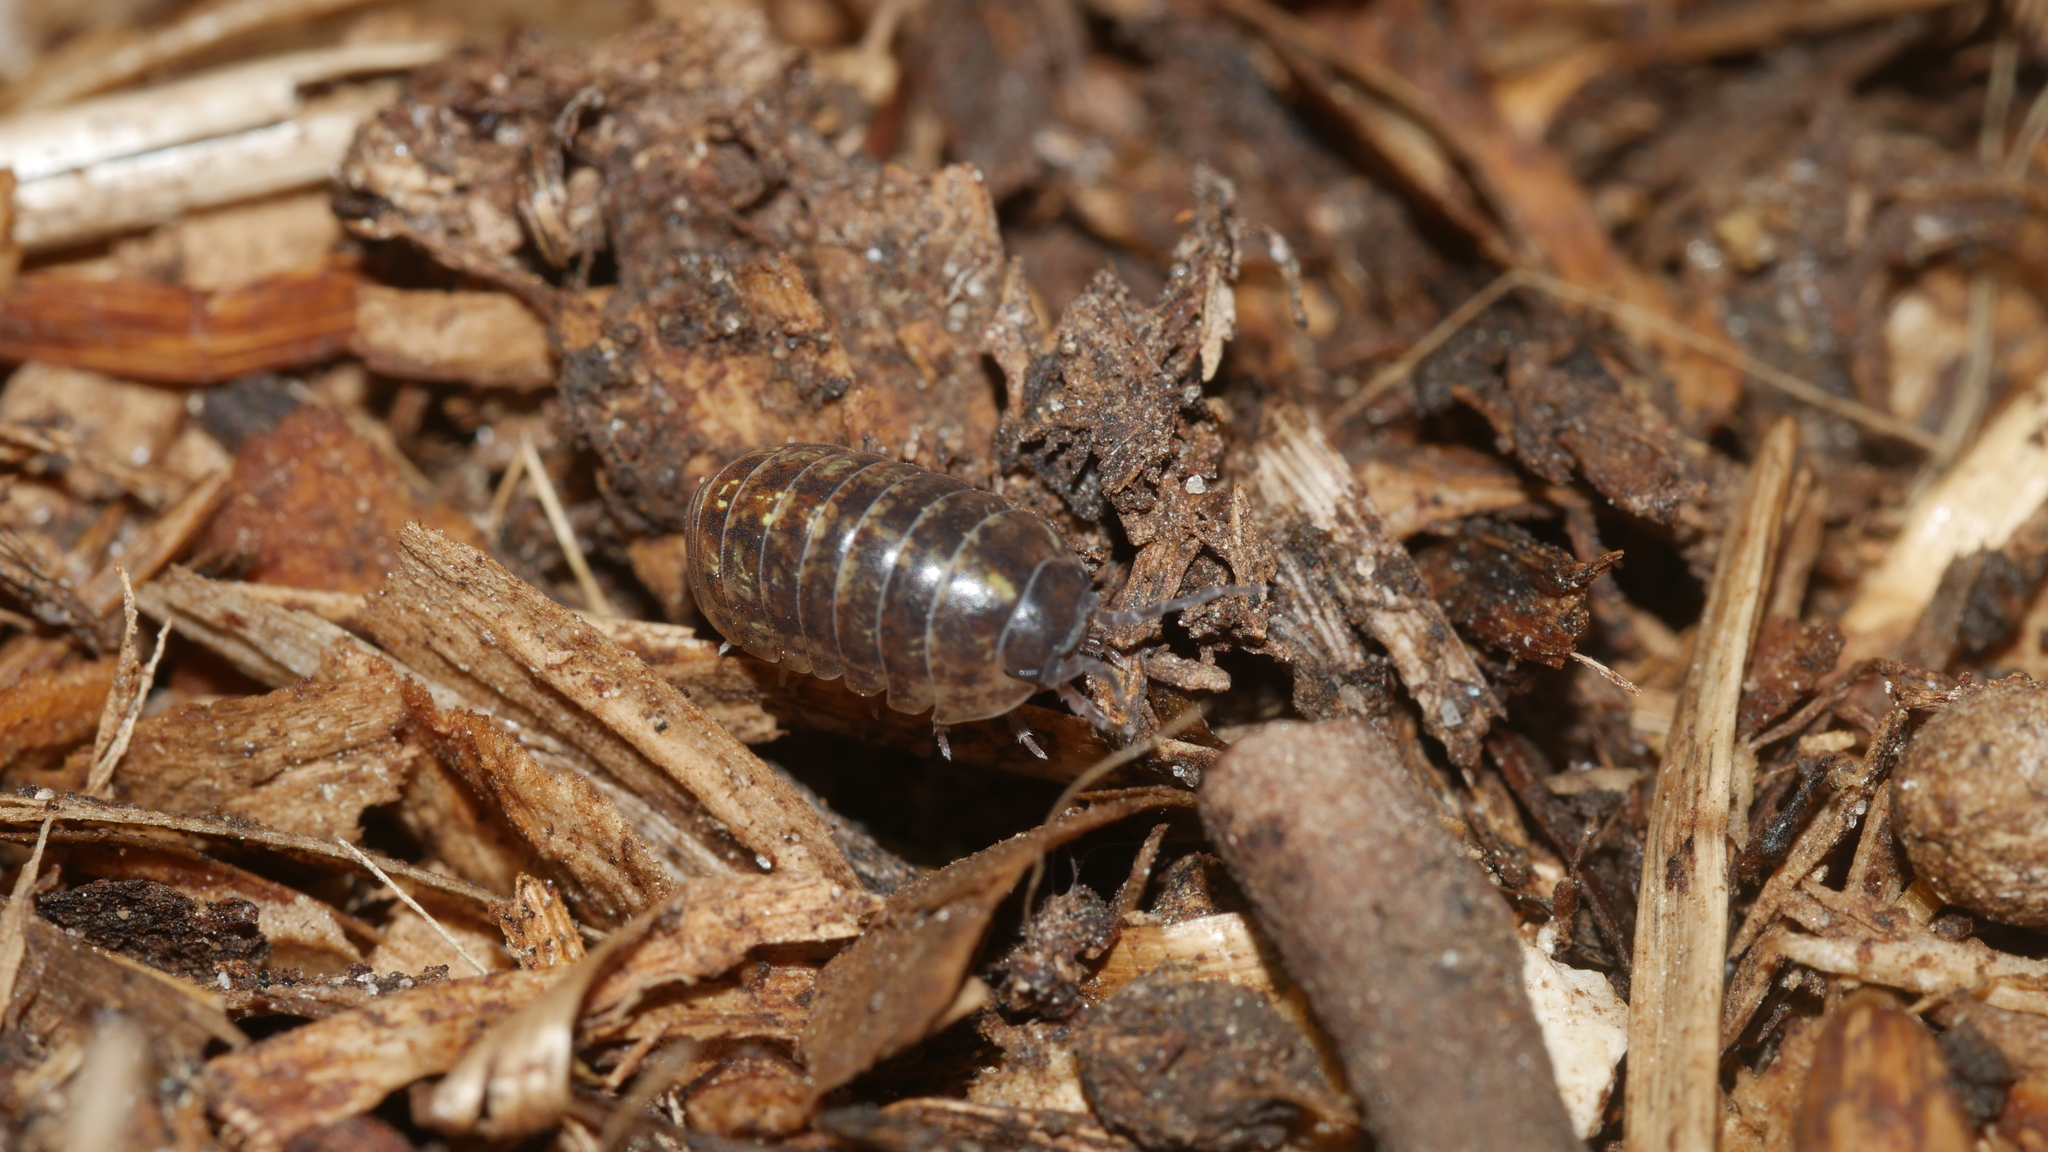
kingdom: Animalia
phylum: Arthropoda
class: Malacostraca
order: Isopoda
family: Armadillidiidae
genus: Armadillidium
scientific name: Armadillidium vulgare
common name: Common pill woodlouse
